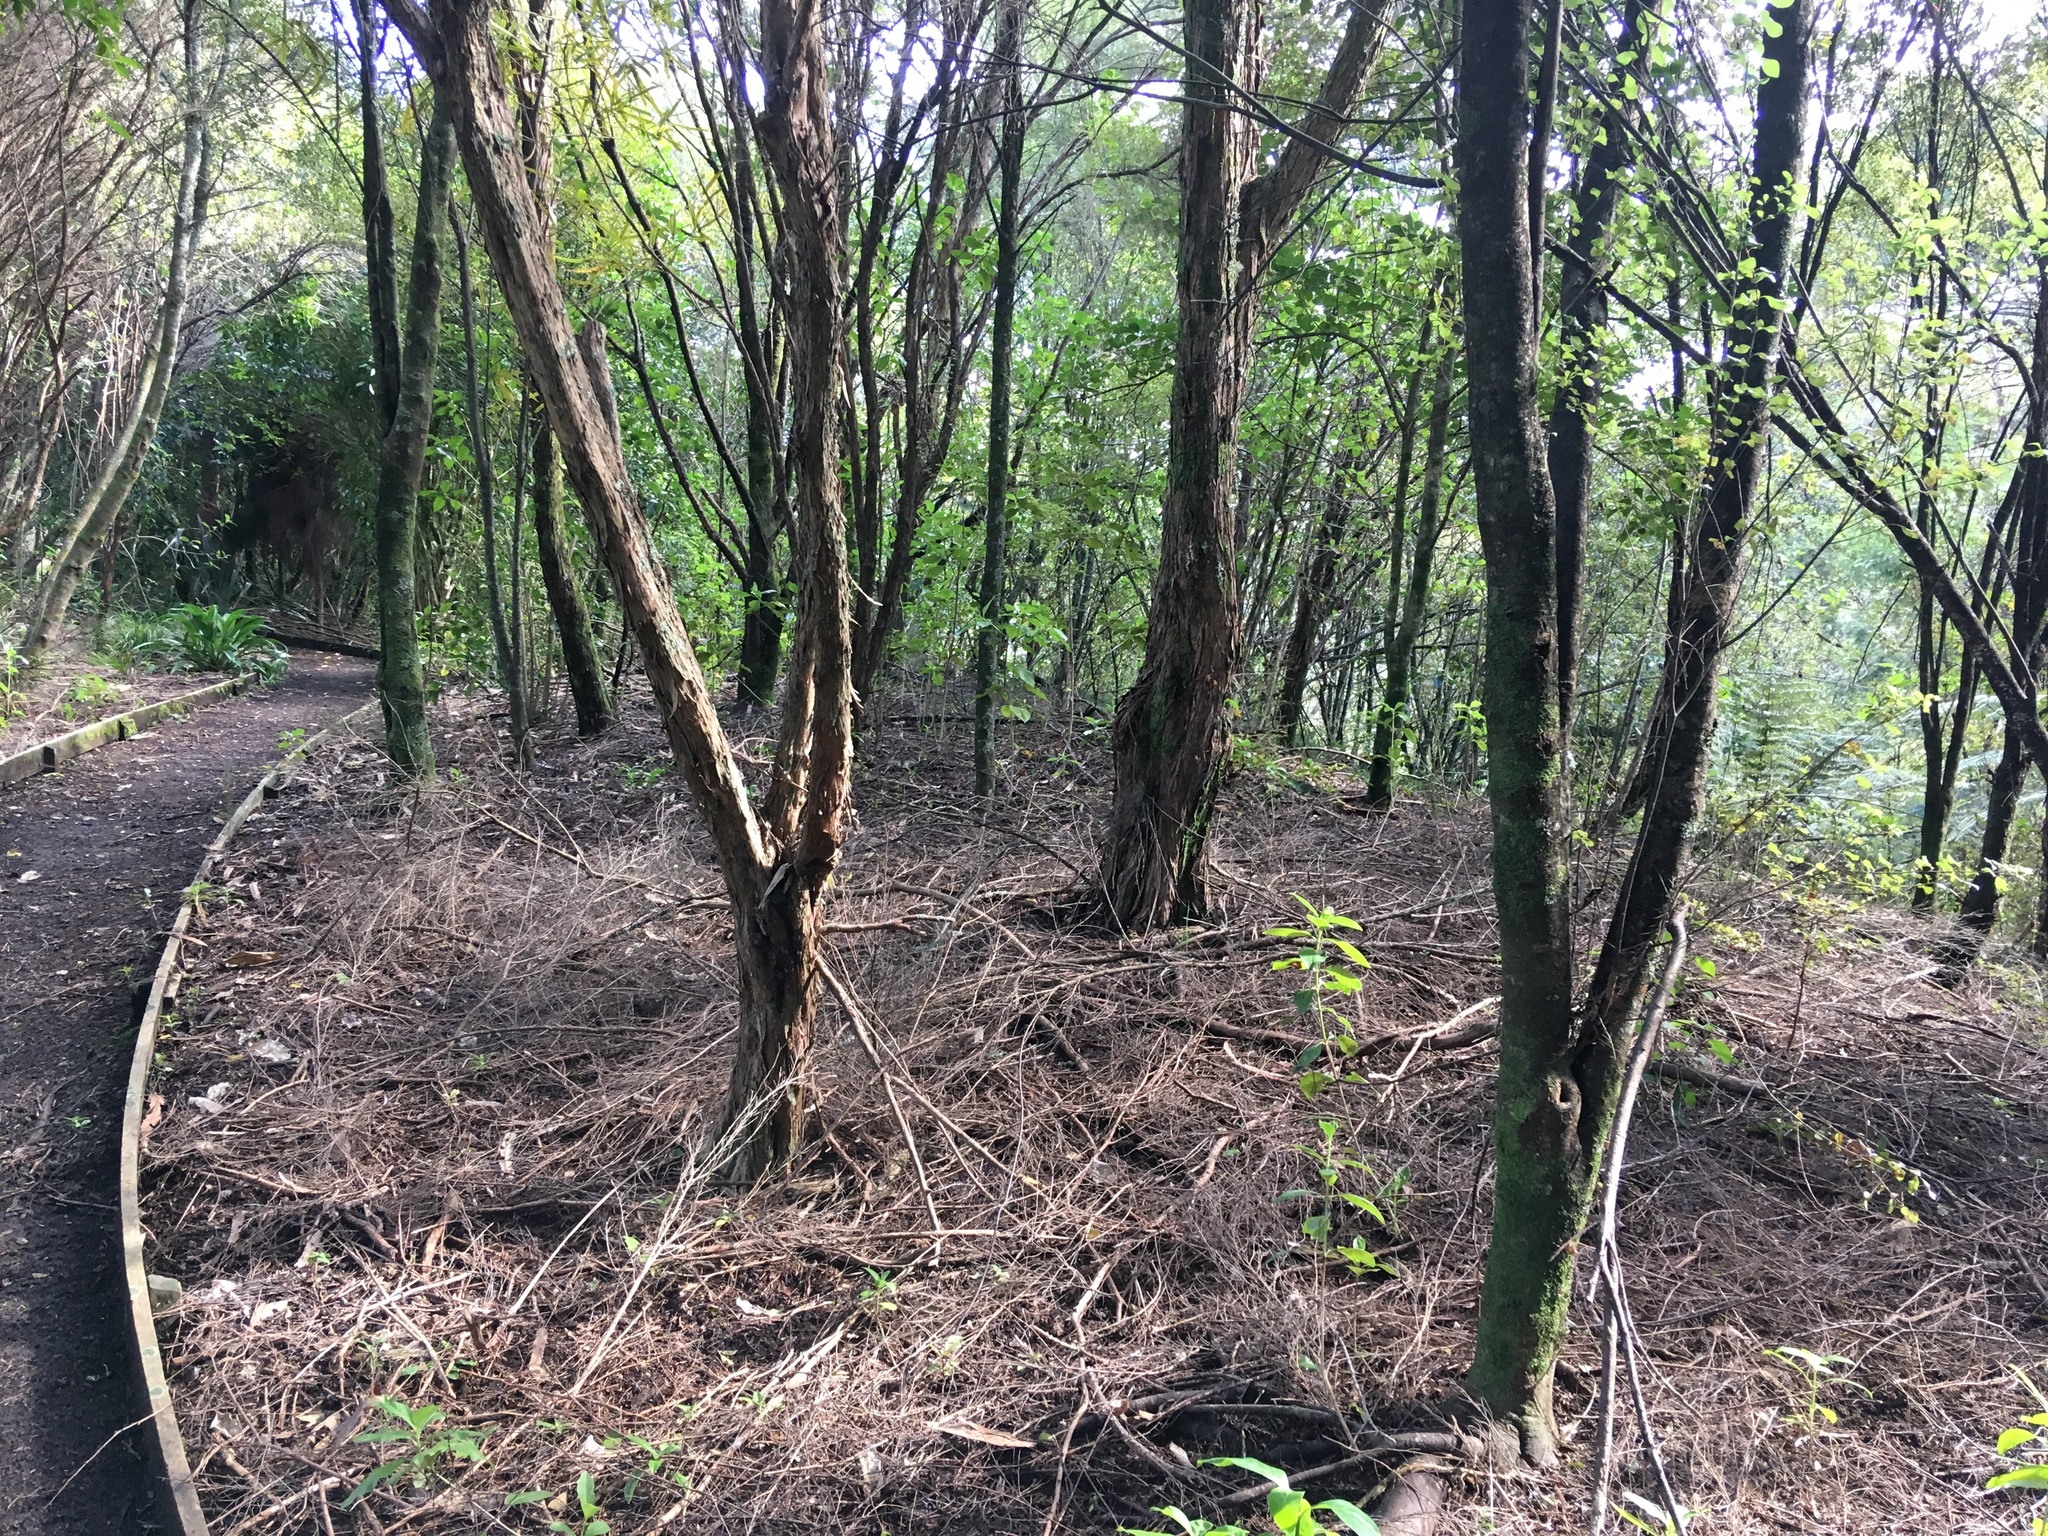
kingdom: Plantae
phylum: Tracheophyta
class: Liliopsida
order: Asparagales
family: Asparagaceae
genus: Arthropodium
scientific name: Arthropodium cirratum
